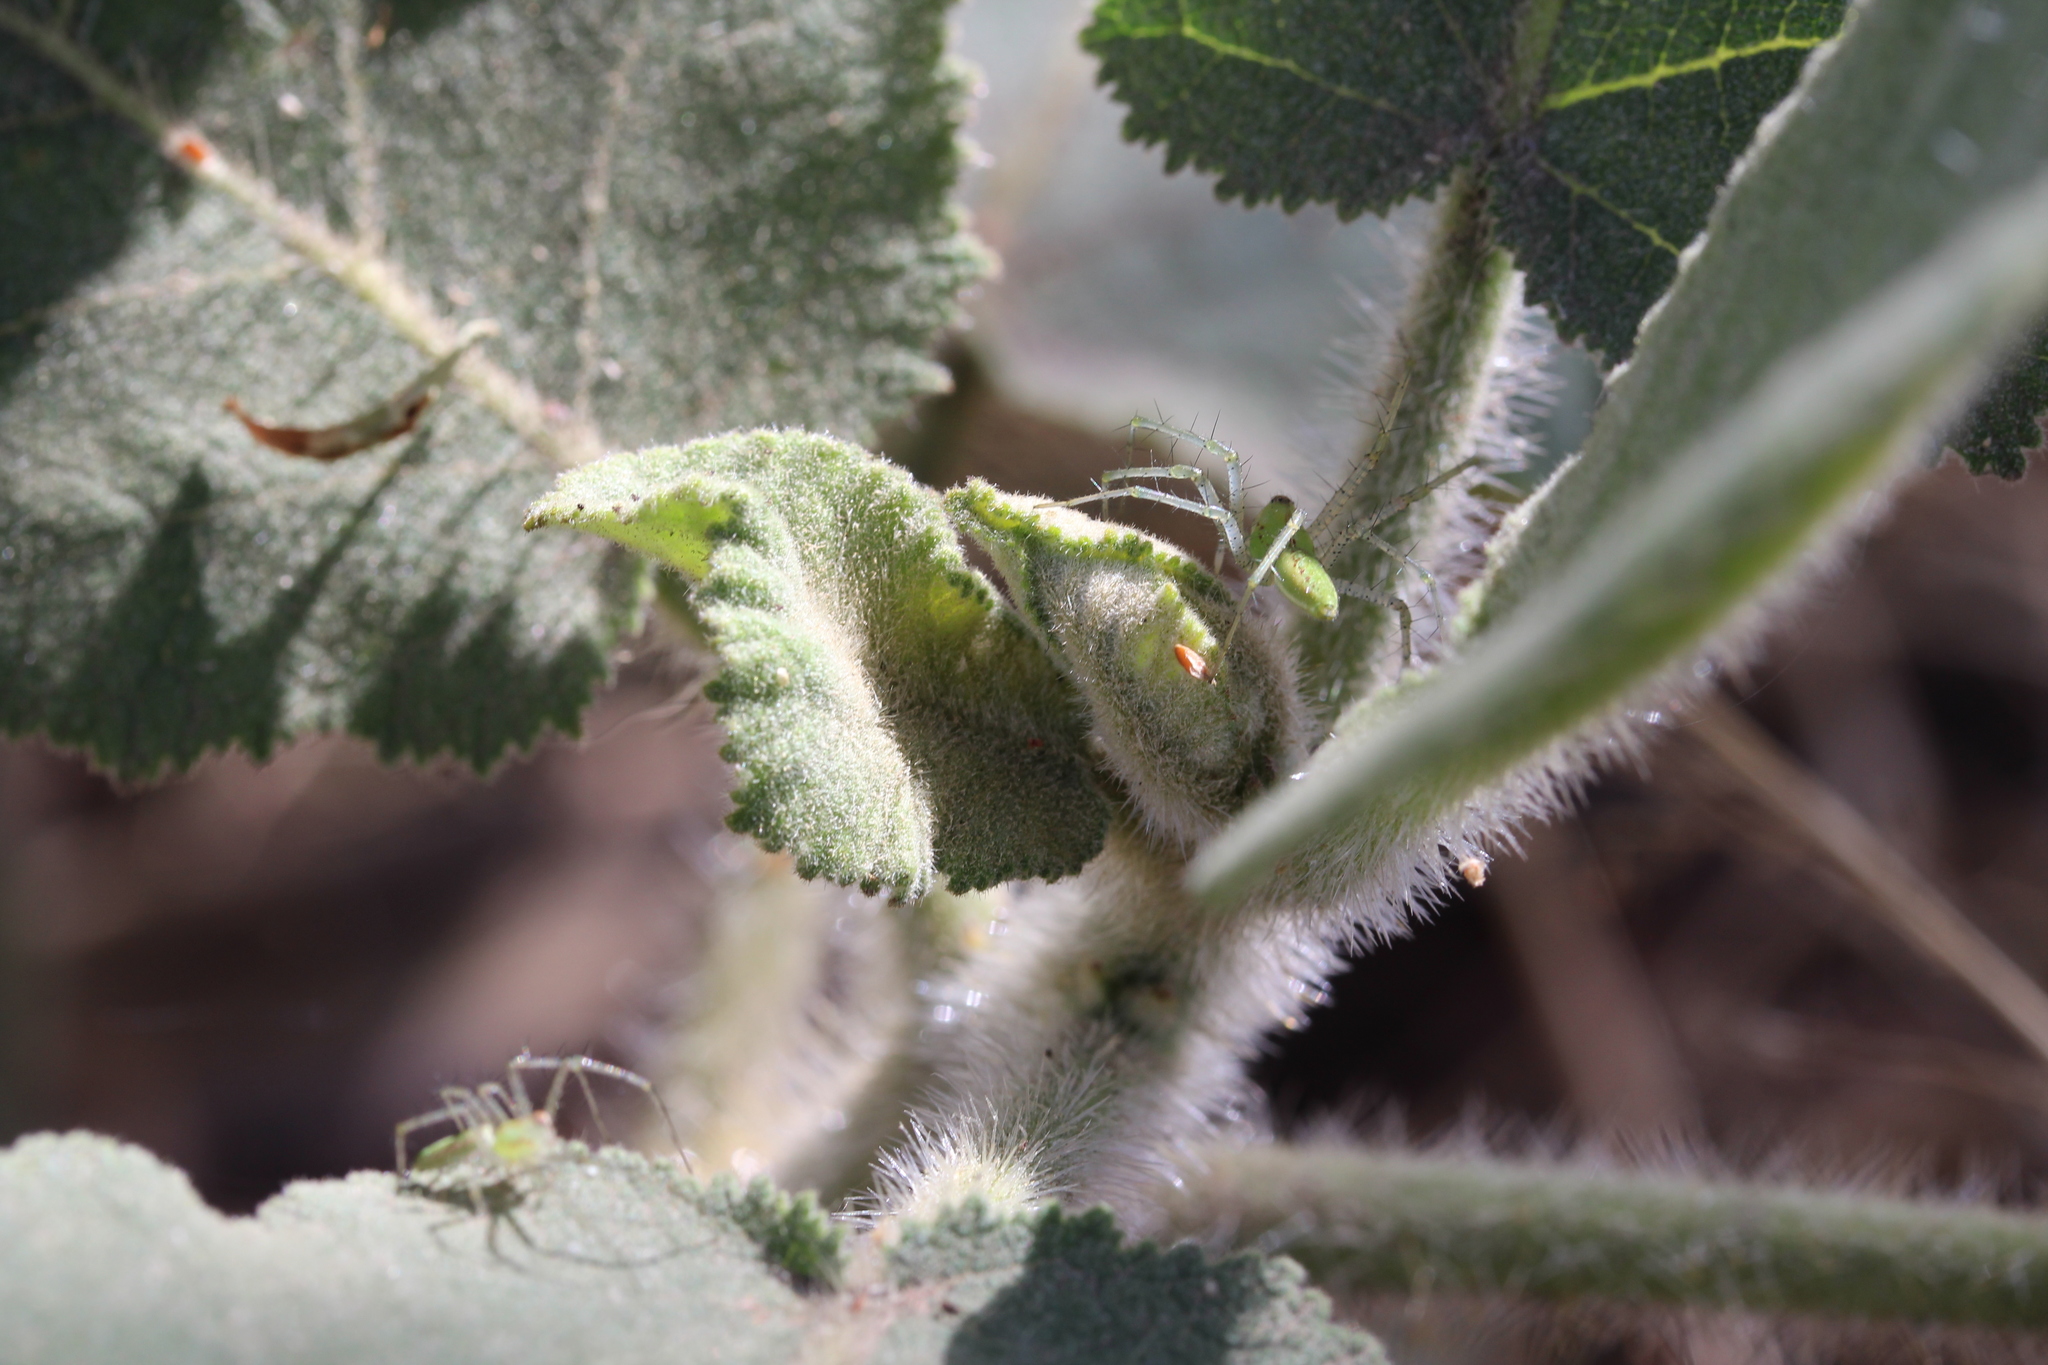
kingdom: Animalia
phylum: Arthropoda
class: Arachnida
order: Araneae
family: Oxyopidae
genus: Peucetia
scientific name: Peucetia
